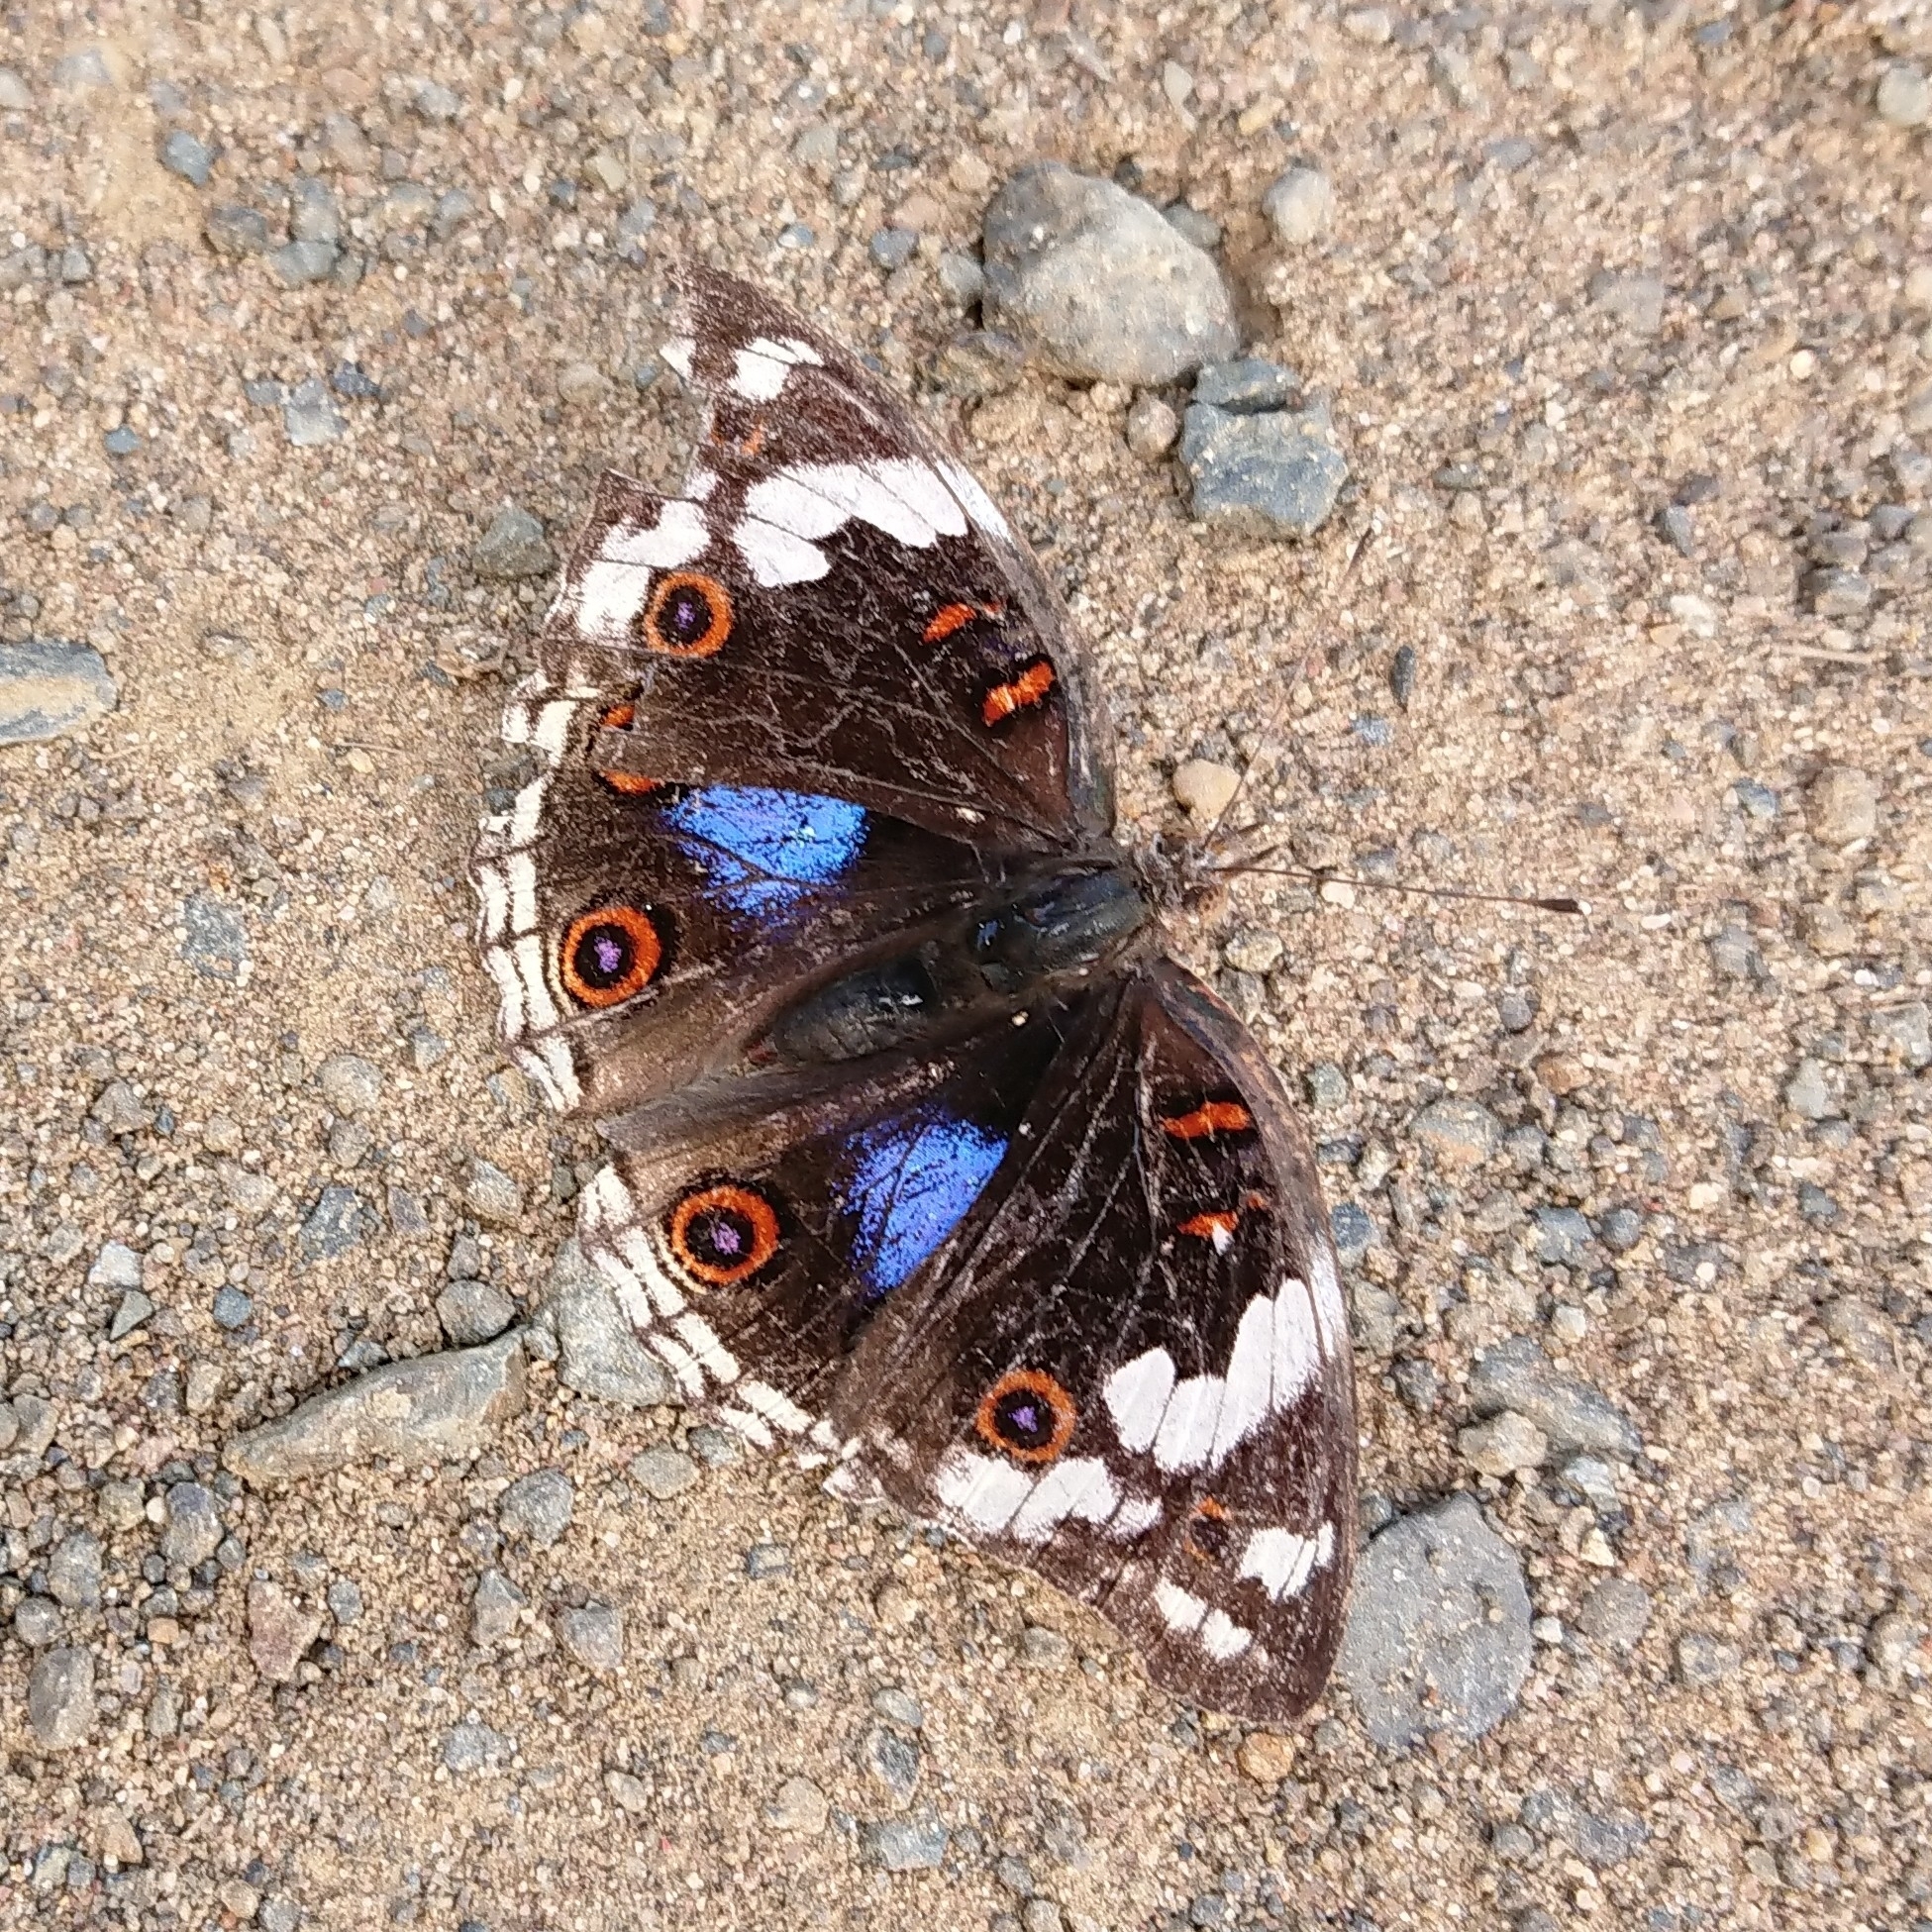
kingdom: Animalia
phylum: Arthropoda
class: Insecta
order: Lepidoptera
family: Nymphalidae
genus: Junonia
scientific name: Junonia oenone
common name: Dark blue pansy
